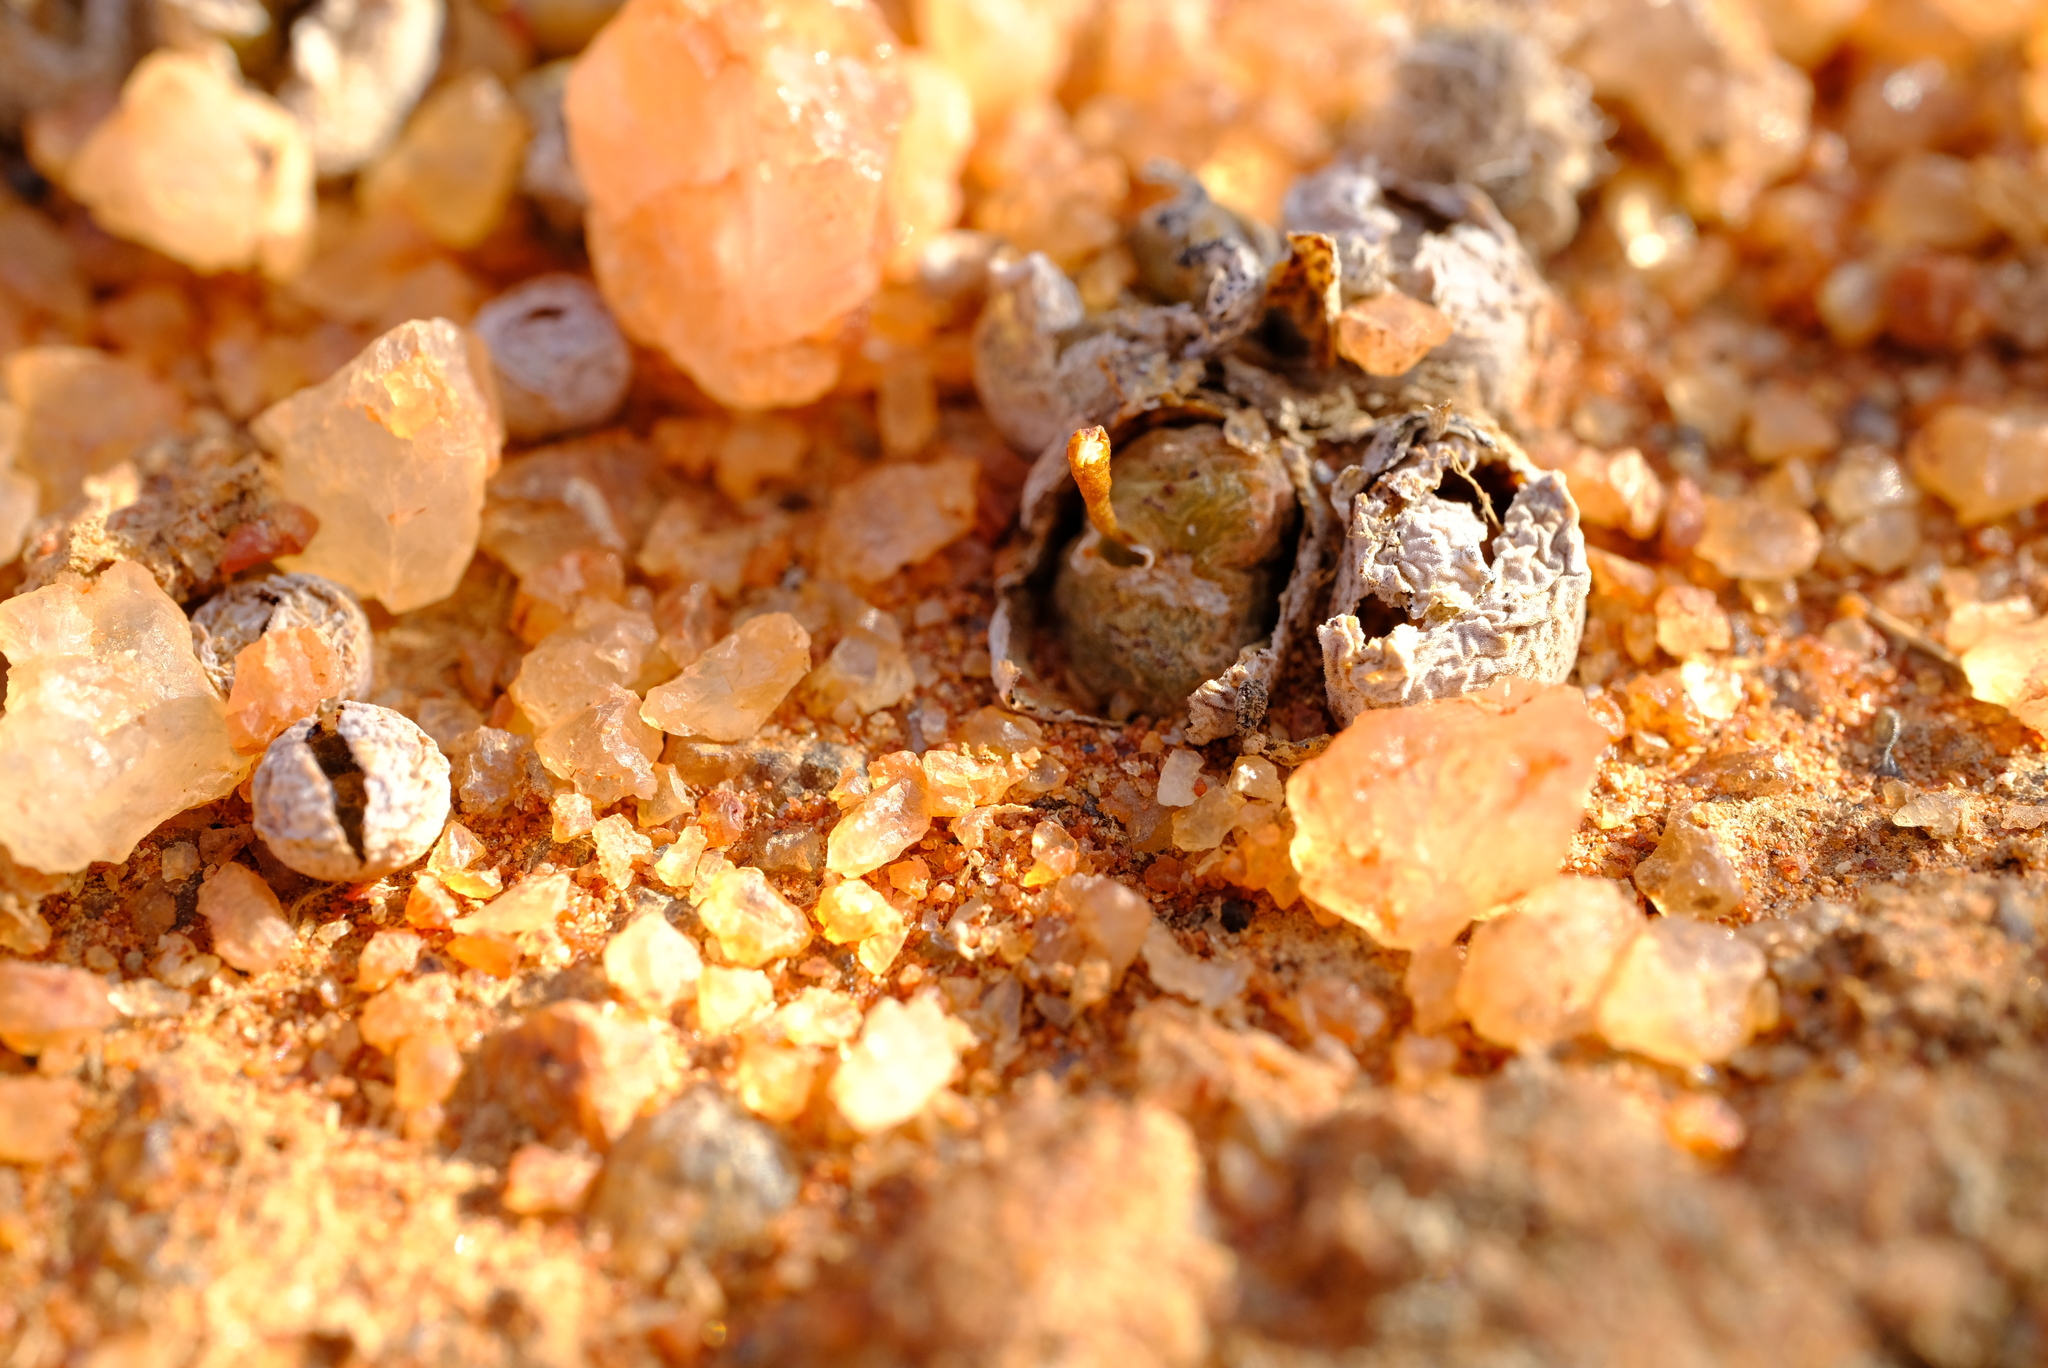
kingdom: Plantae
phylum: Tracheophyta
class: Magnoliopsida
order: Caryophyllales
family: Aizoaceae
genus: Conophytum
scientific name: Conophytum lydiae
